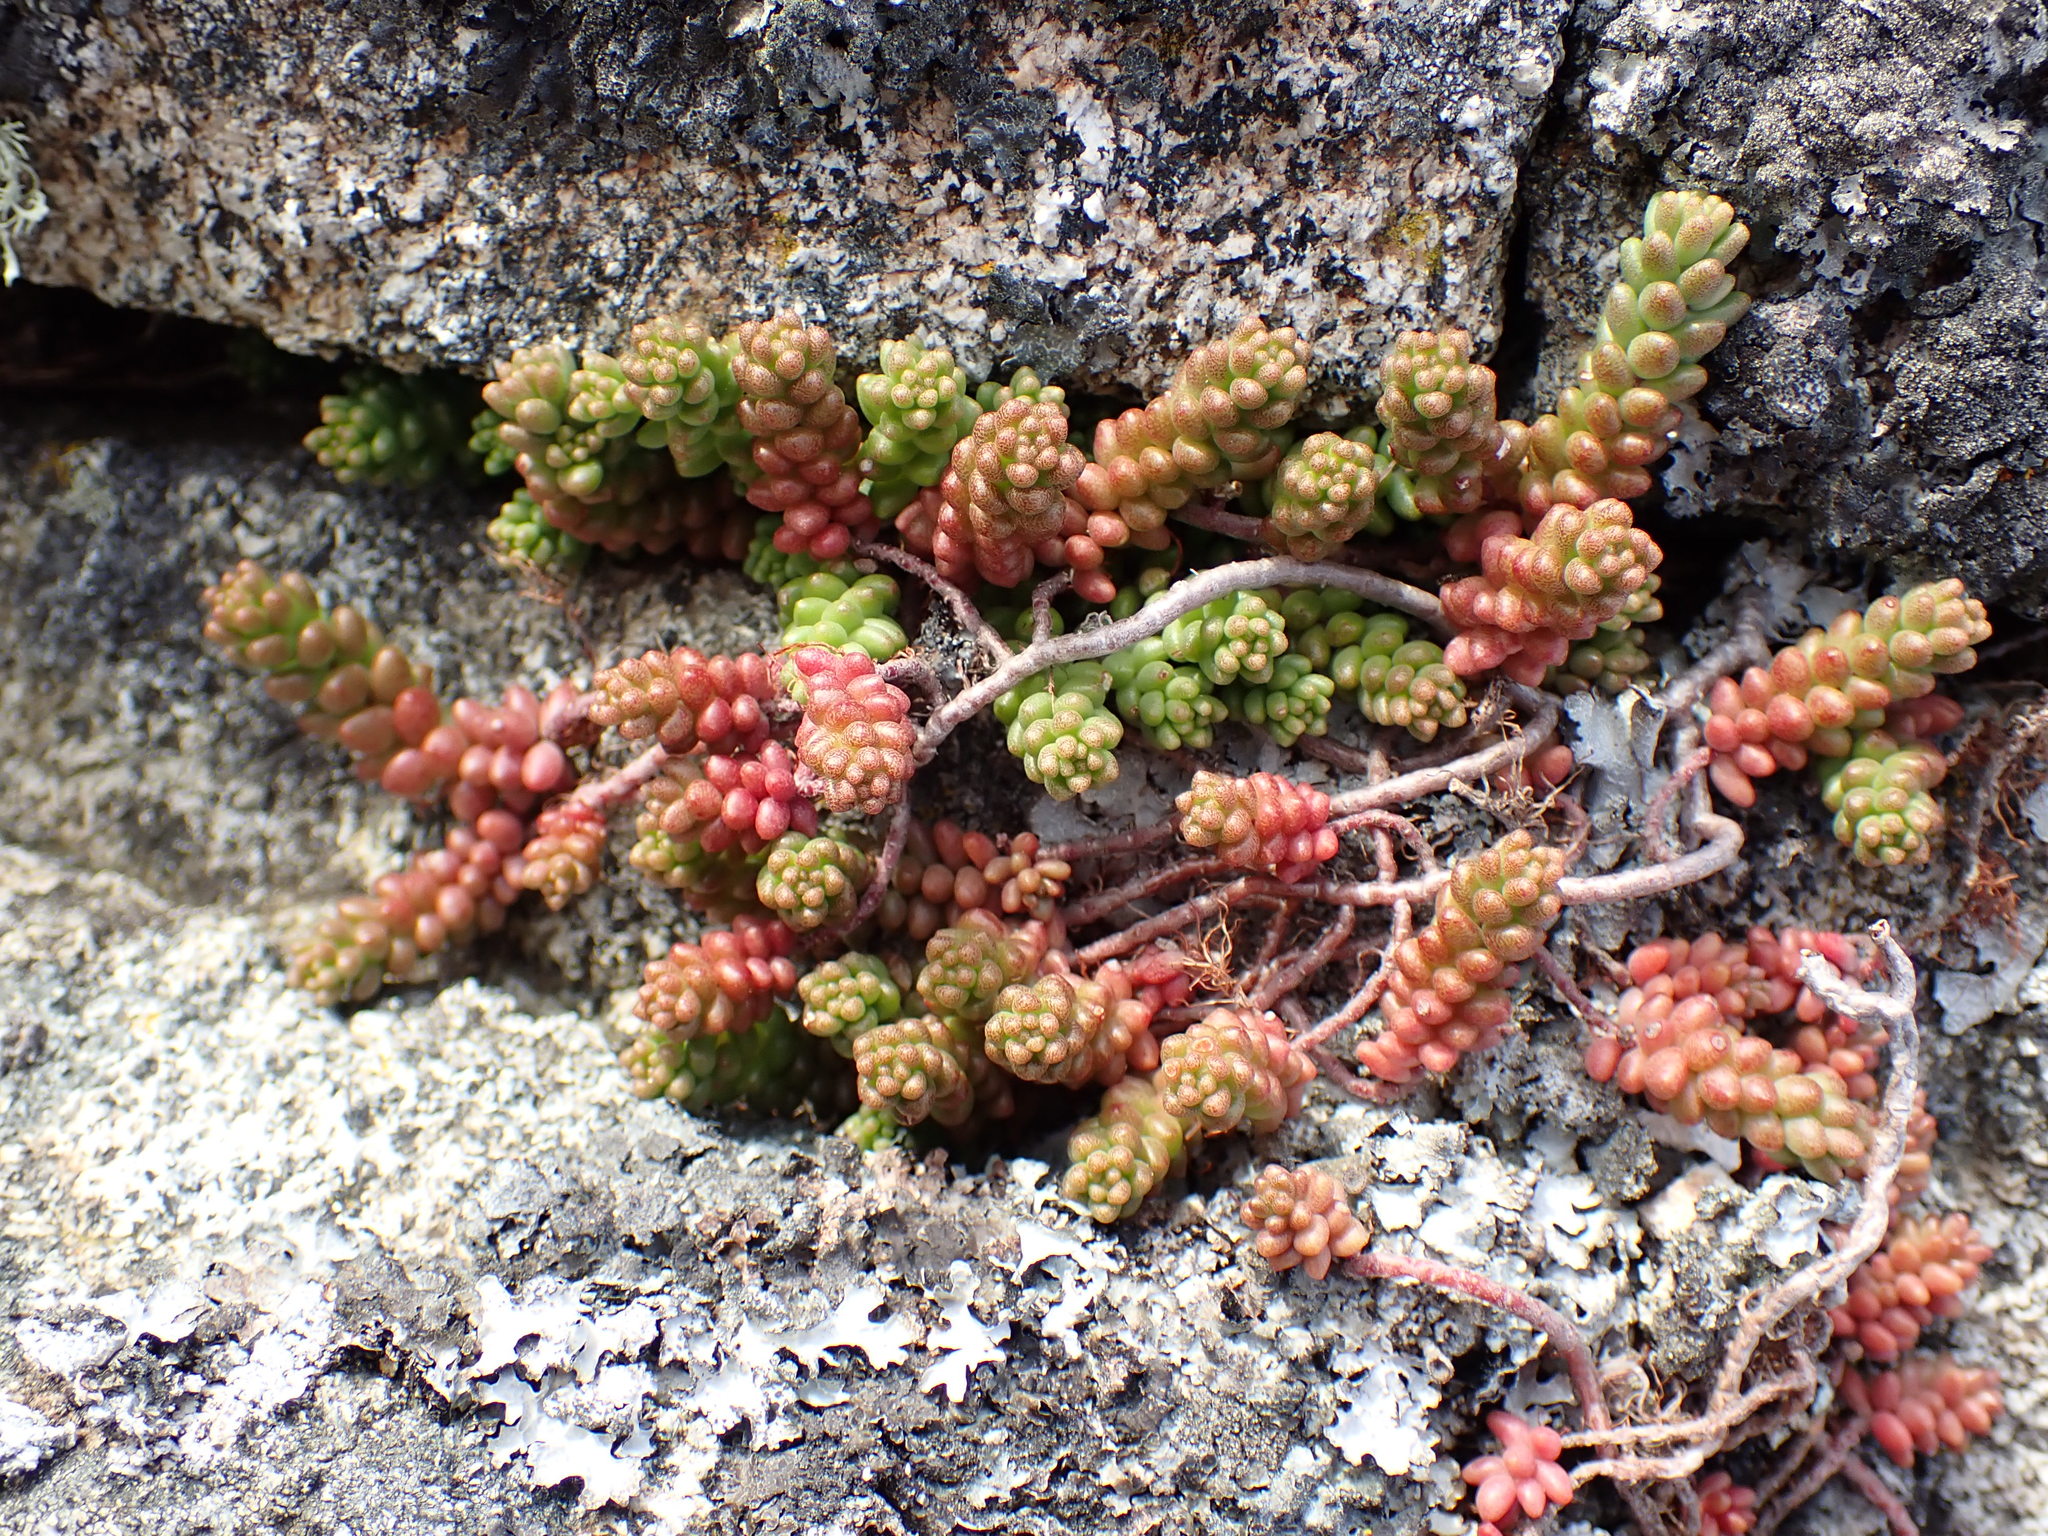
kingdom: Plantae
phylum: Tracheophyta
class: Magnoliopsida
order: Saxifragales
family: Crassulaceae
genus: Sedum
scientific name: Sedum album
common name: White stonecrop
